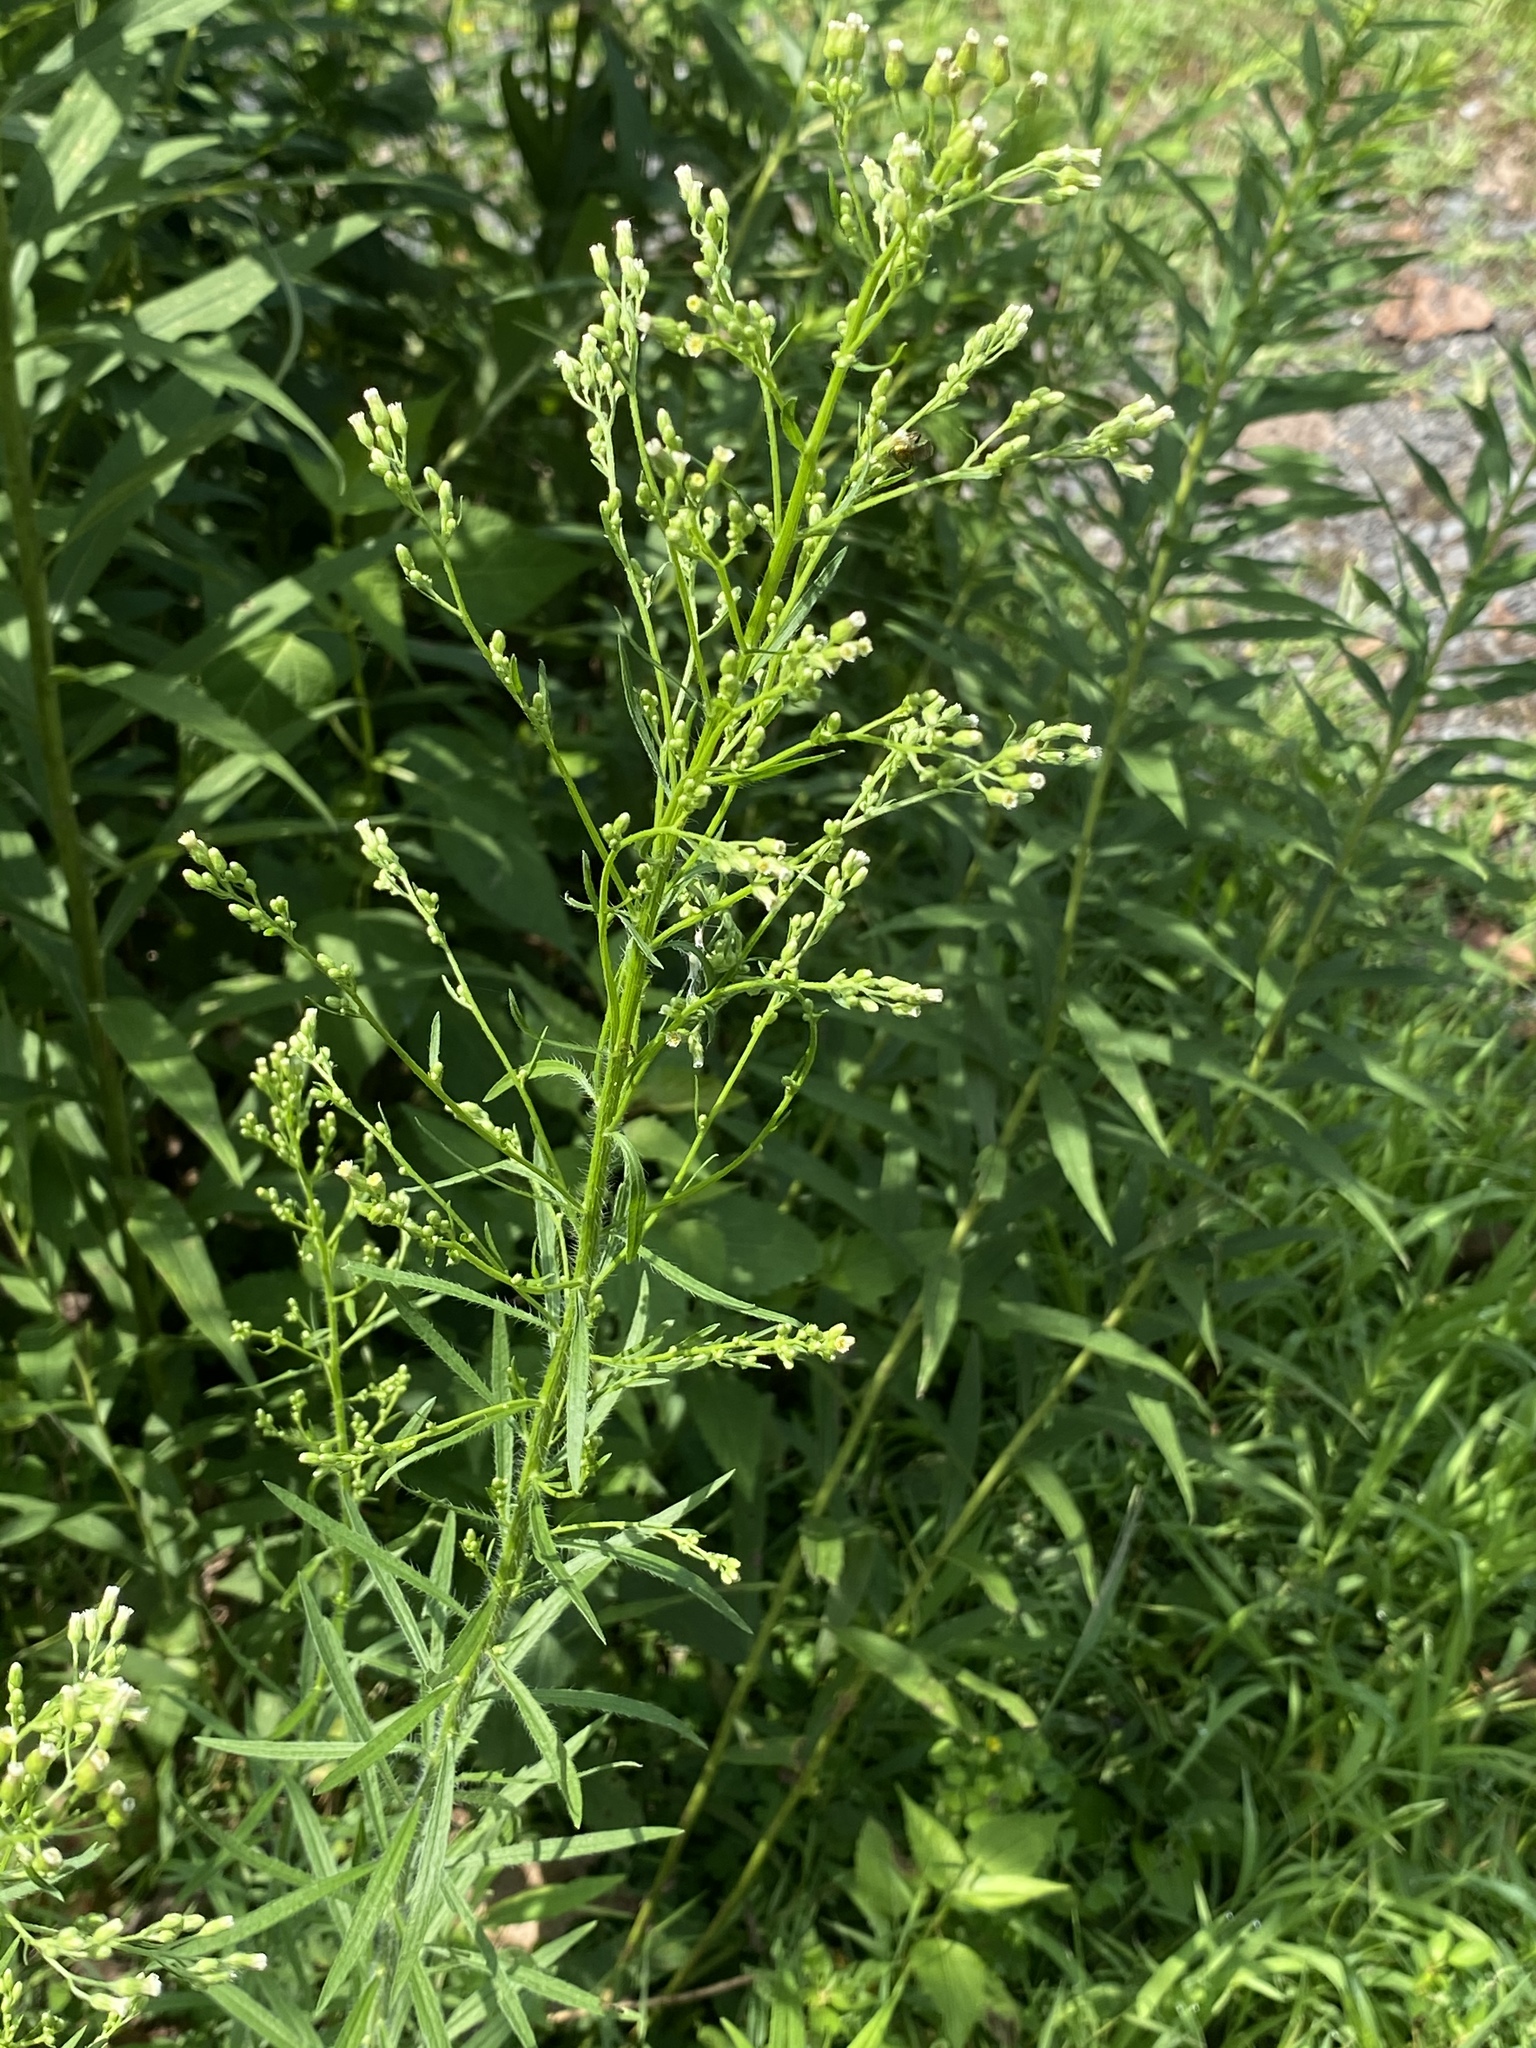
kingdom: Plantae
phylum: Tracheophyta
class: Magnoliopsida
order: Asterales
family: Asteraceae
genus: Erigeron
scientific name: Erigeron canadensis
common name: Canadian fleabane
